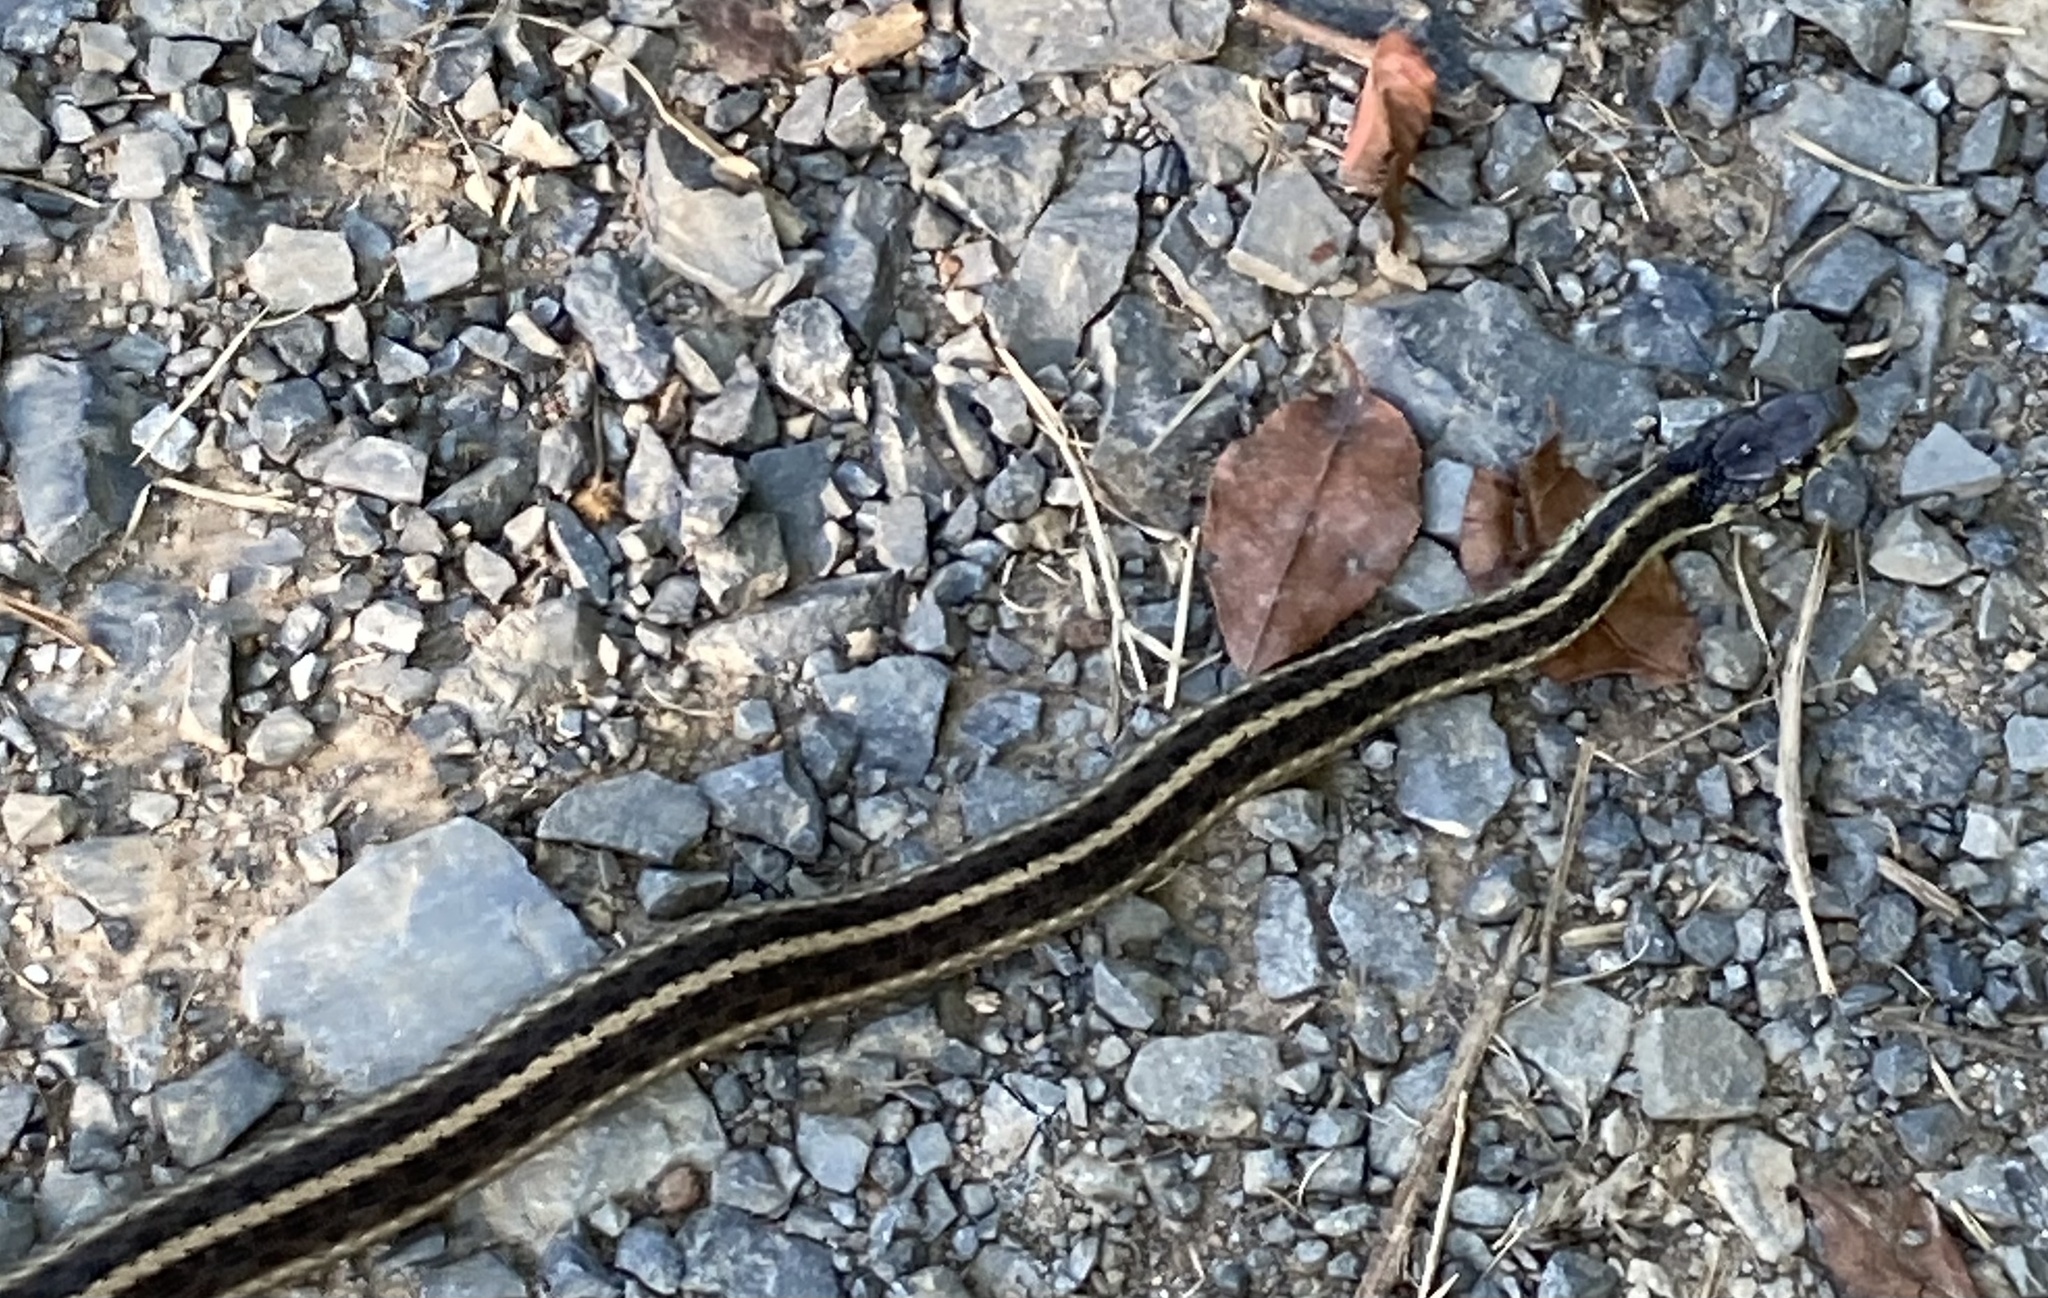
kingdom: Animalia
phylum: Chordata
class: Squamata
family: Colubridae
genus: Thamnophis
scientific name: Thamnophis sirtalis
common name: Common garter snake
